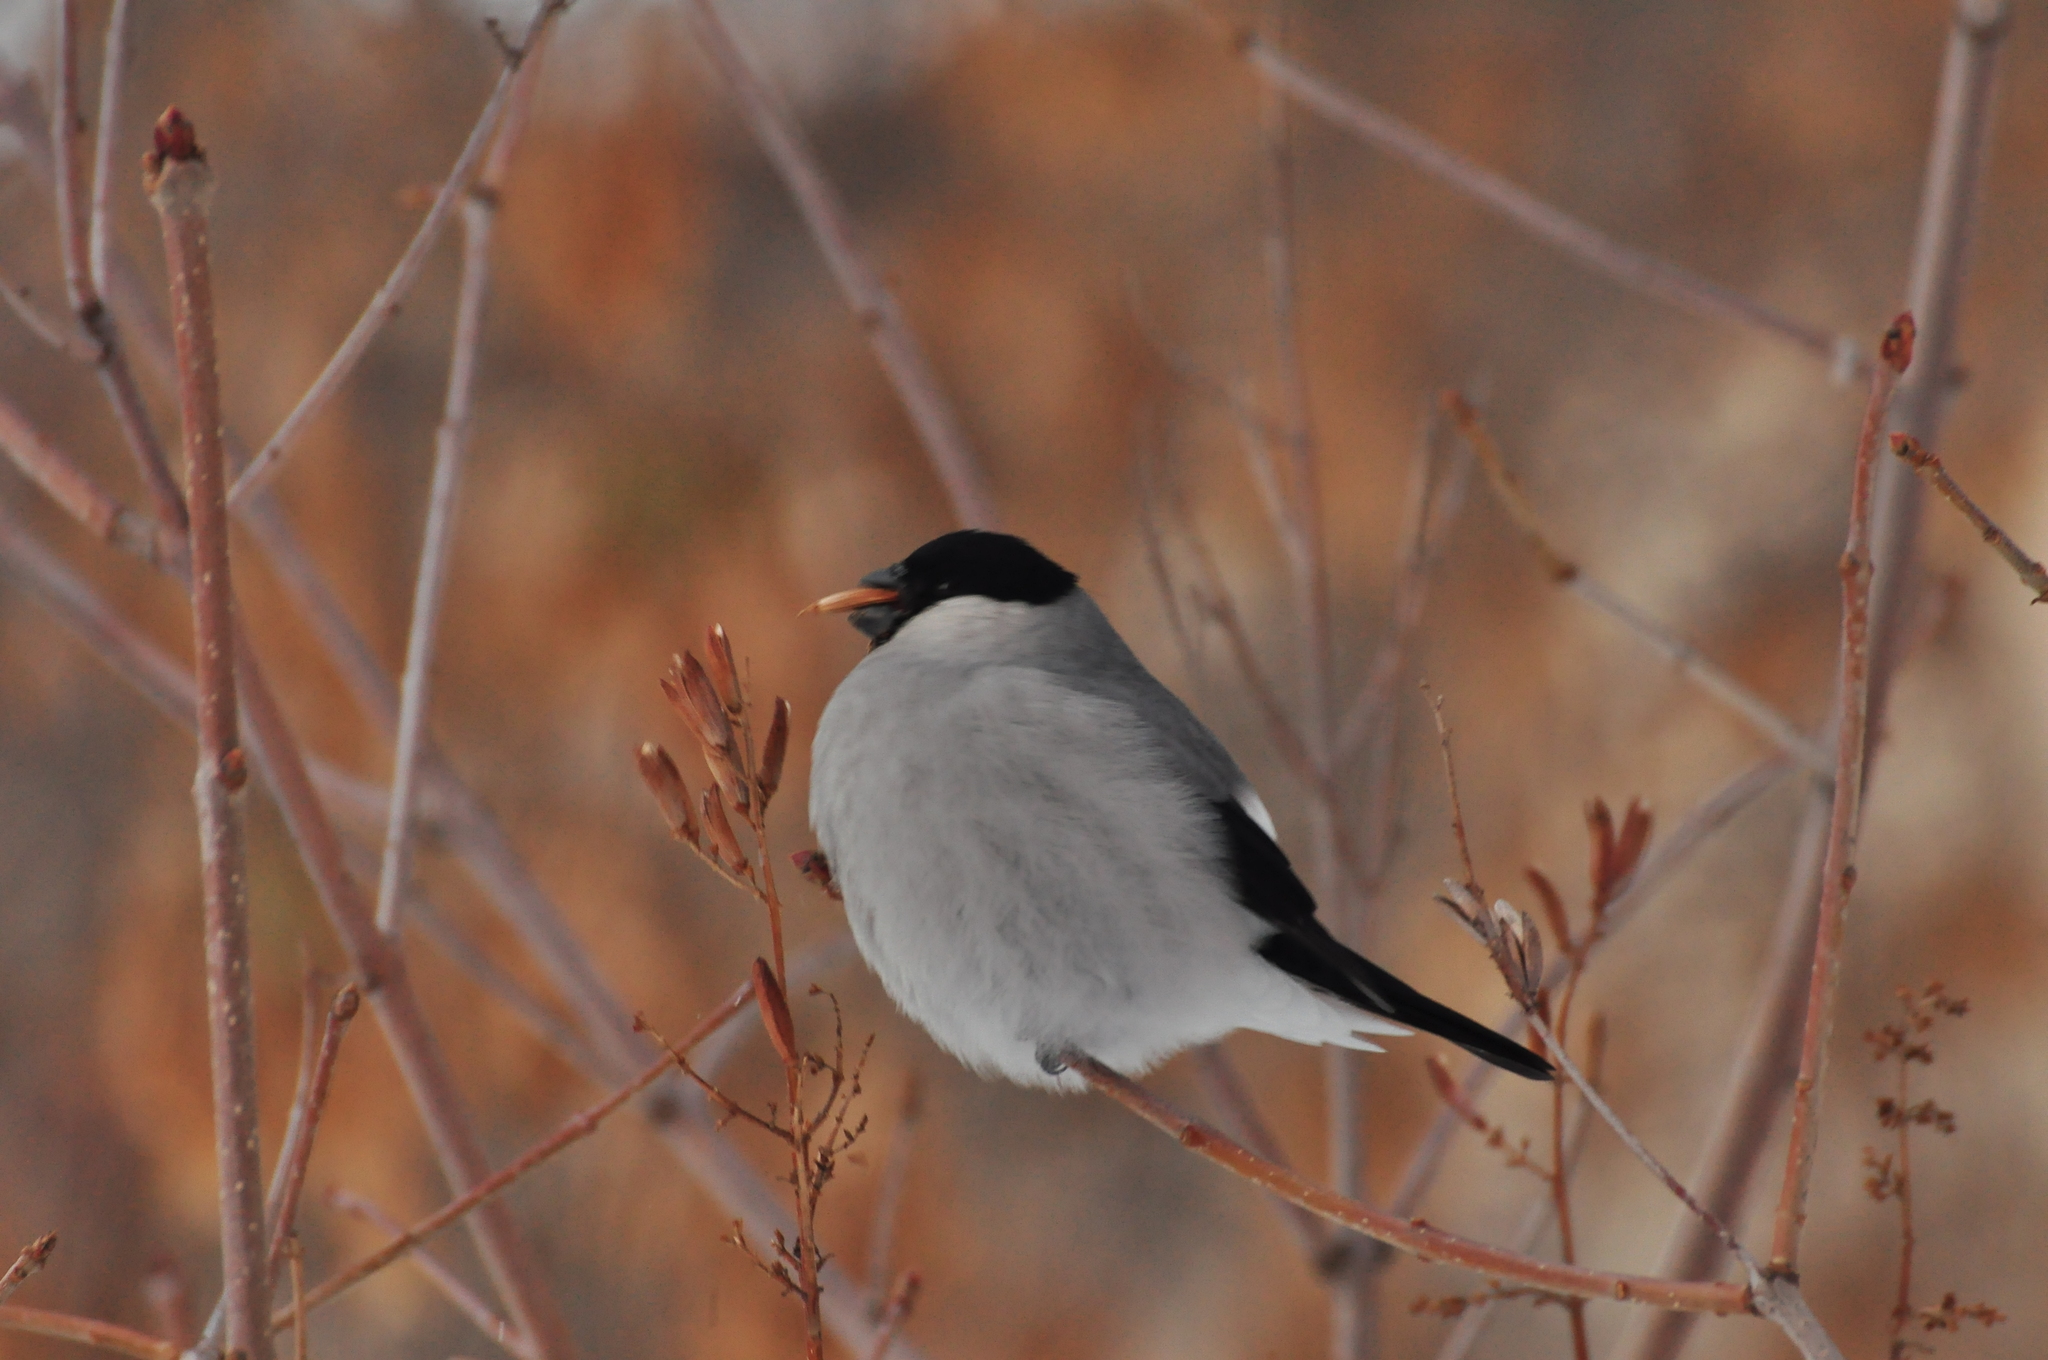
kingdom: Animalia
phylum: Chordata
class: Aves
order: Passeriformes
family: Fringillidae
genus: Pyrrhula
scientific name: Pyrrhula pyrrhula
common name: Eurasian bullfinch
